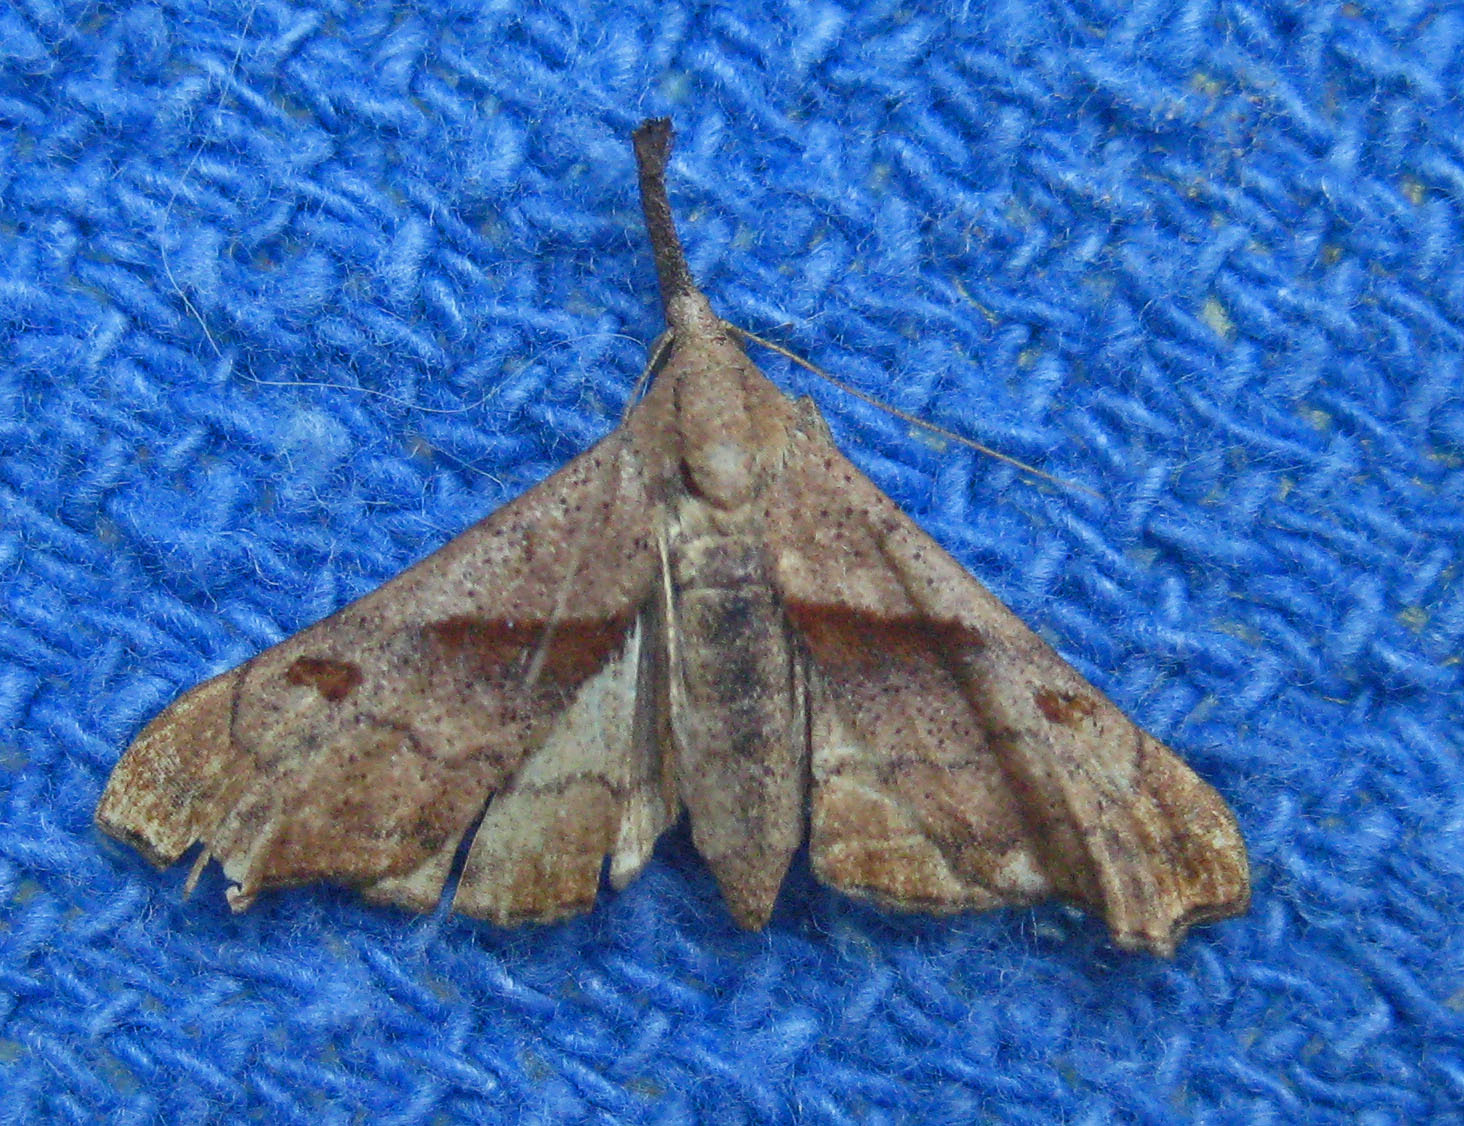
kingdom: Animalia
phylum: Arthropoda
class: Insecta
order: Lepidoptera
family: Erebidae
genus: Palthis
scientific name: Palthis angulalis
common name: Dark-spotted palthis moth
